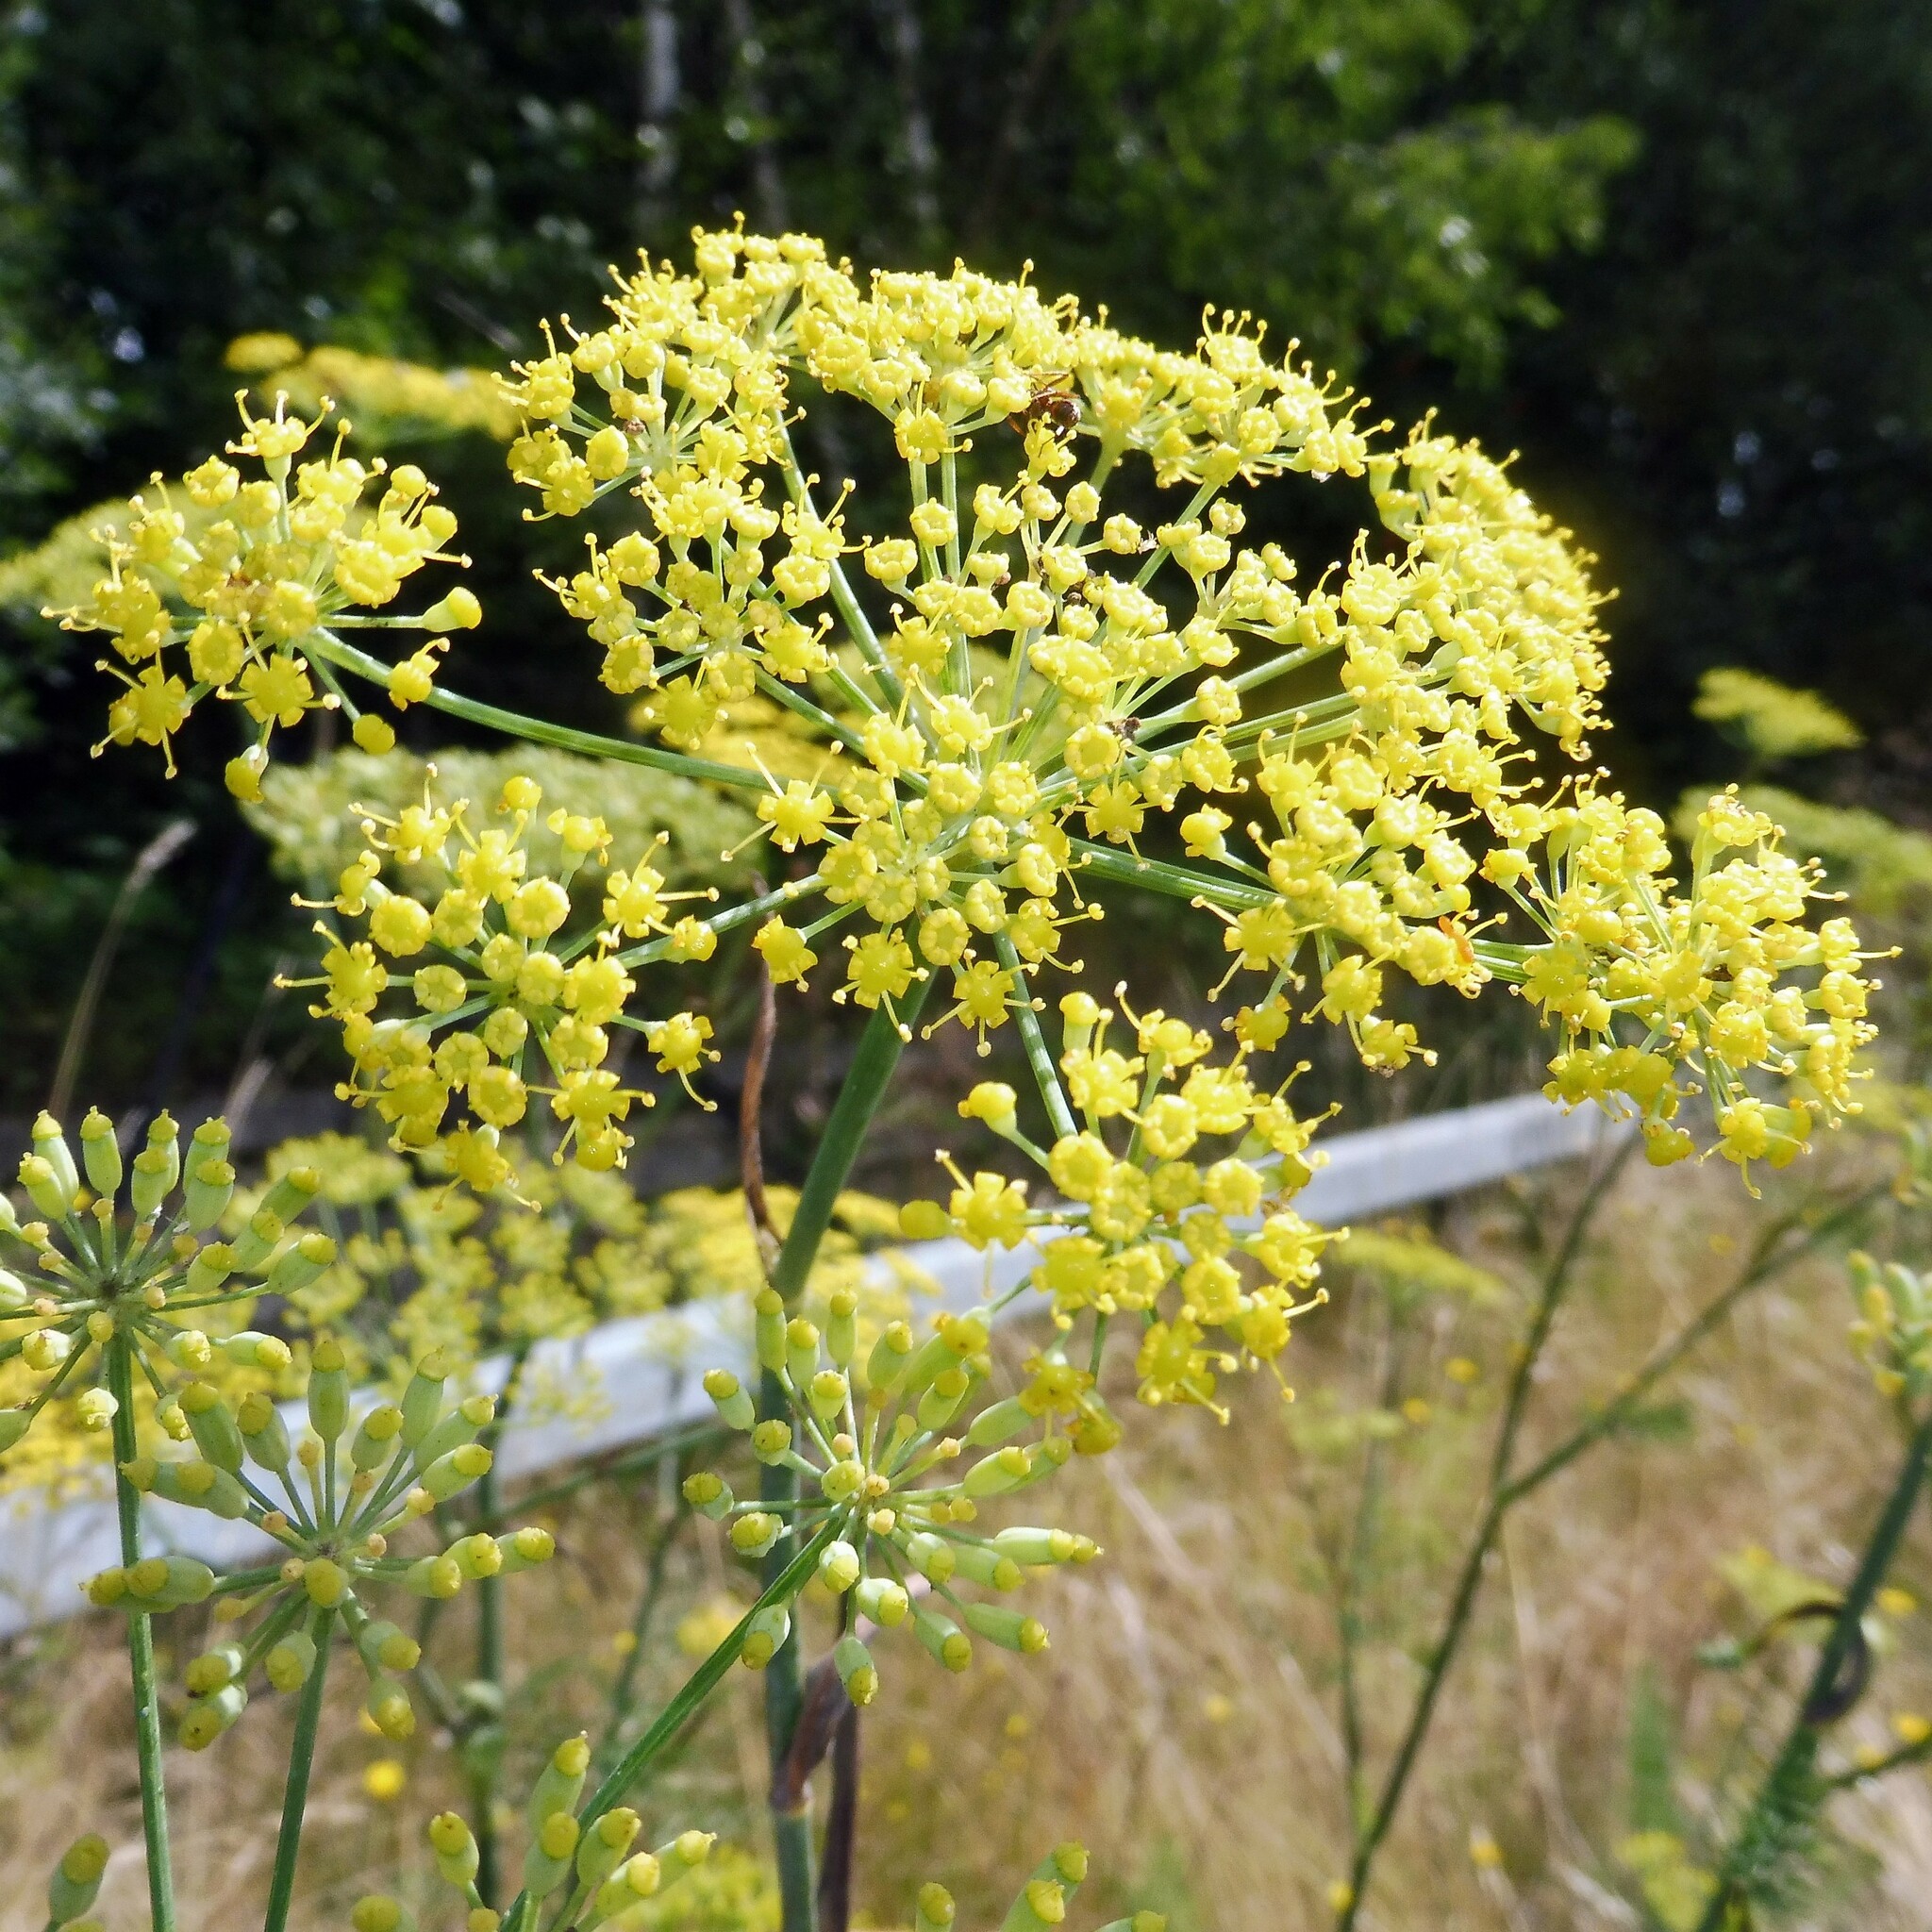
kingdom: Plantae
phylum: Tracheophyta
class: Magnoliopsida
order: Apiales
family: Apiaceae
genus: Foeniculum
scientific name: Foeniculum vulgare
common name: Fennel
